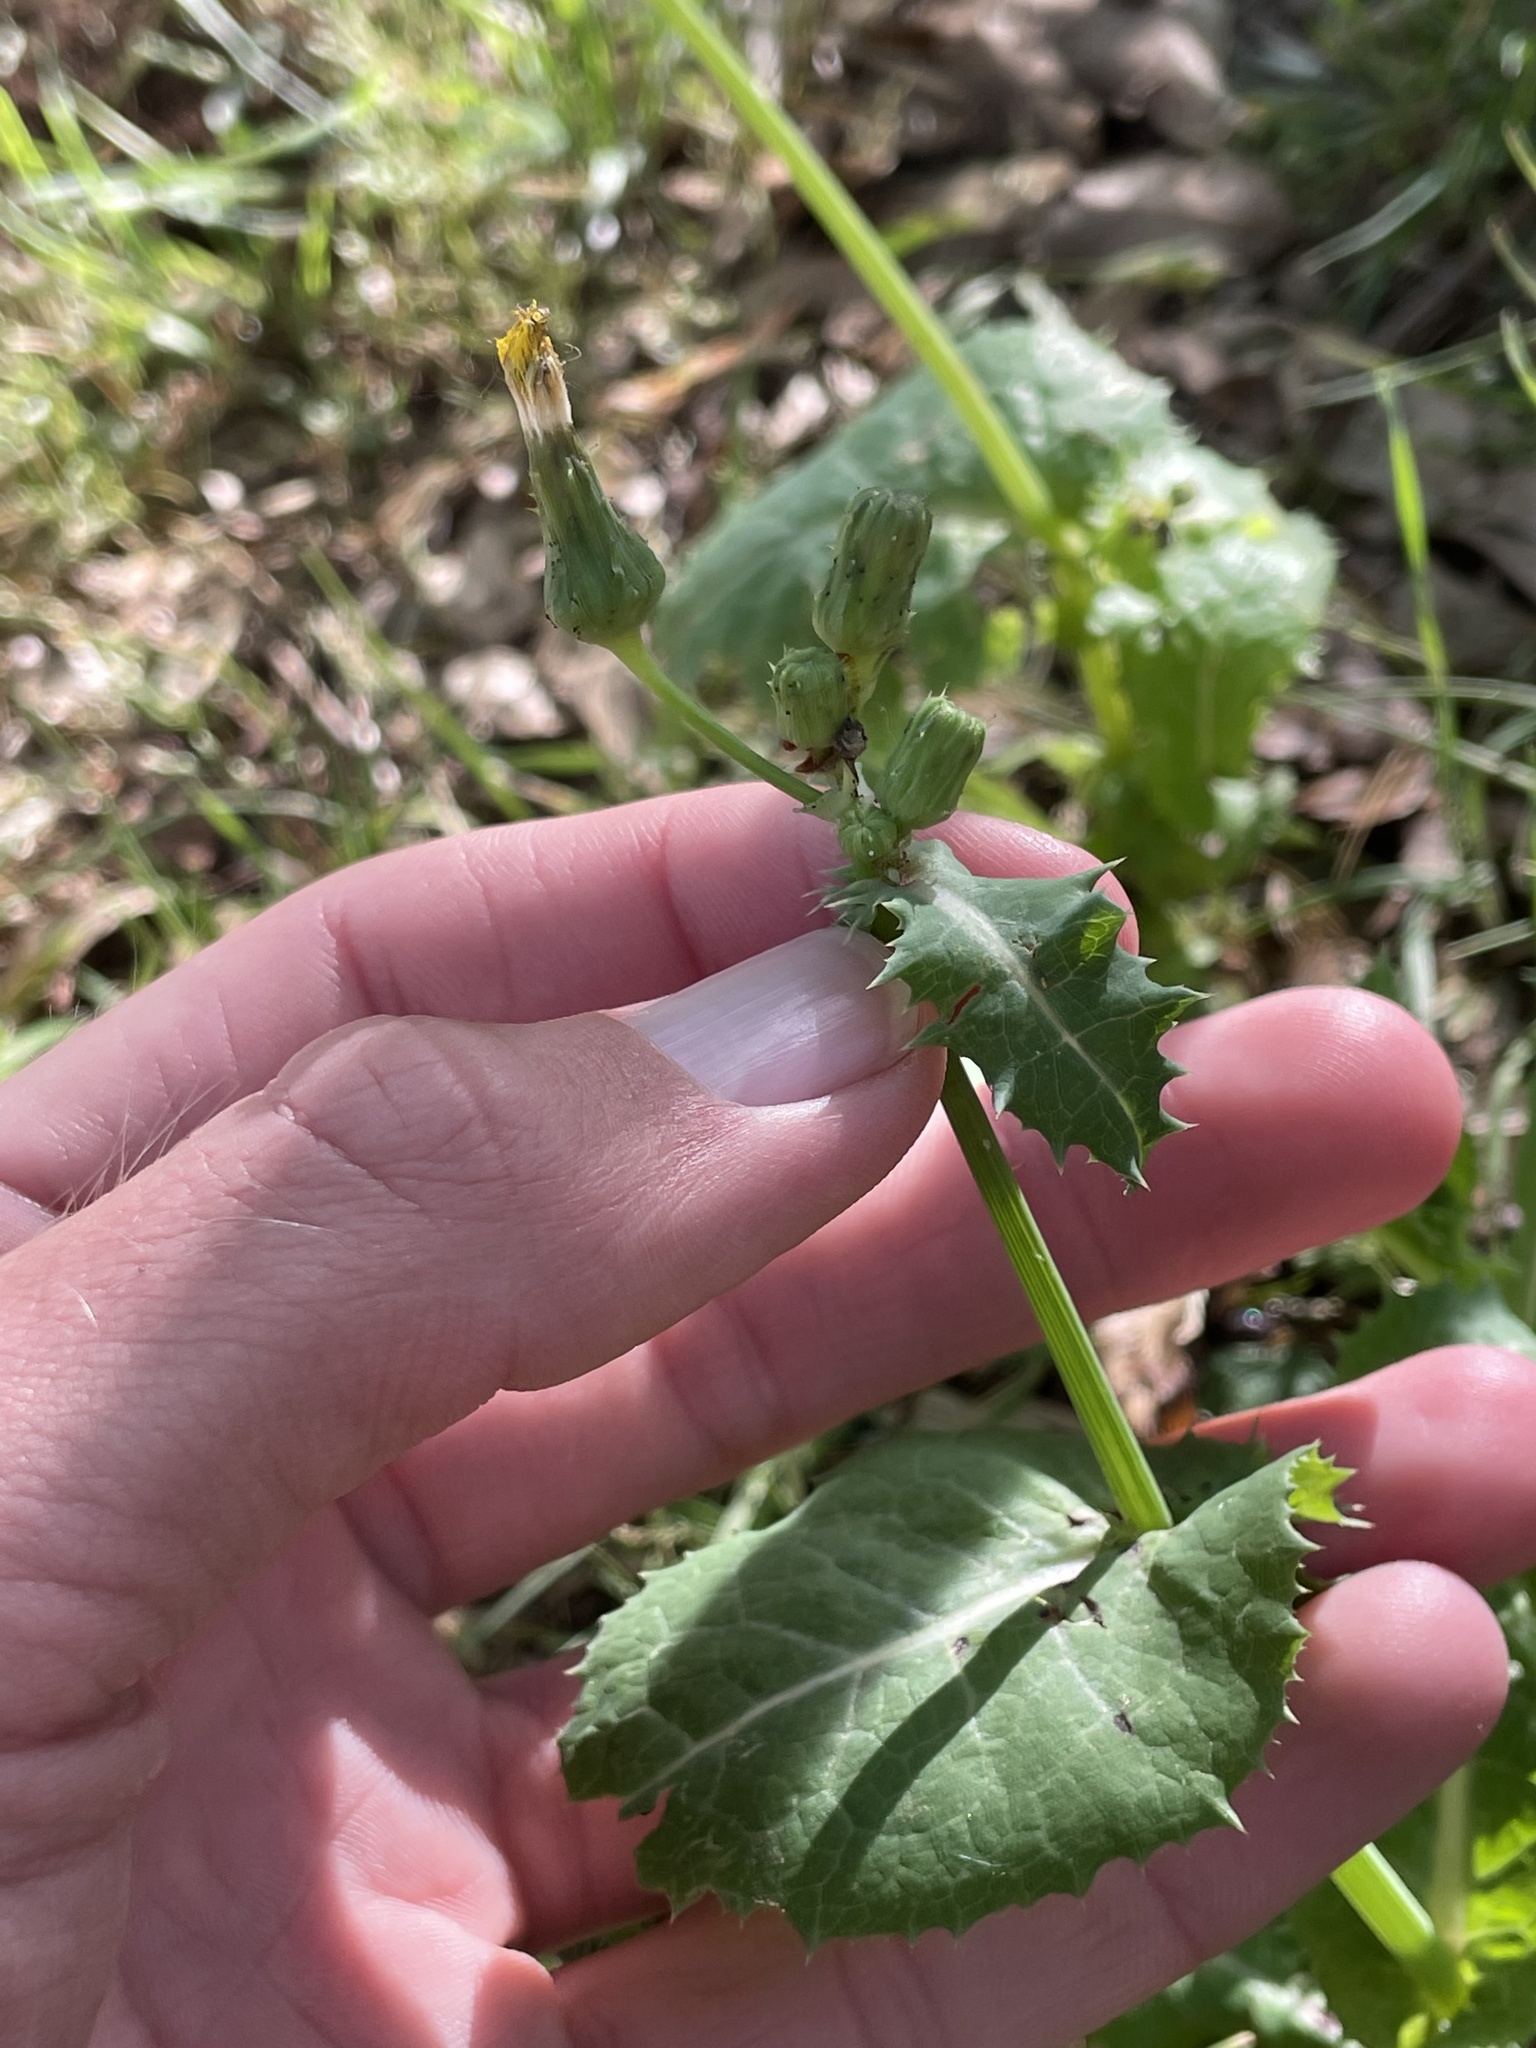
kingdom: Plantae
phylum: Tracheophyta
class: Magnoliopsida
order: Asterales
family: Asteraceae
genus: Sonchus
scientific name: Sonchus oleraceus
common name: Common sowthistle
